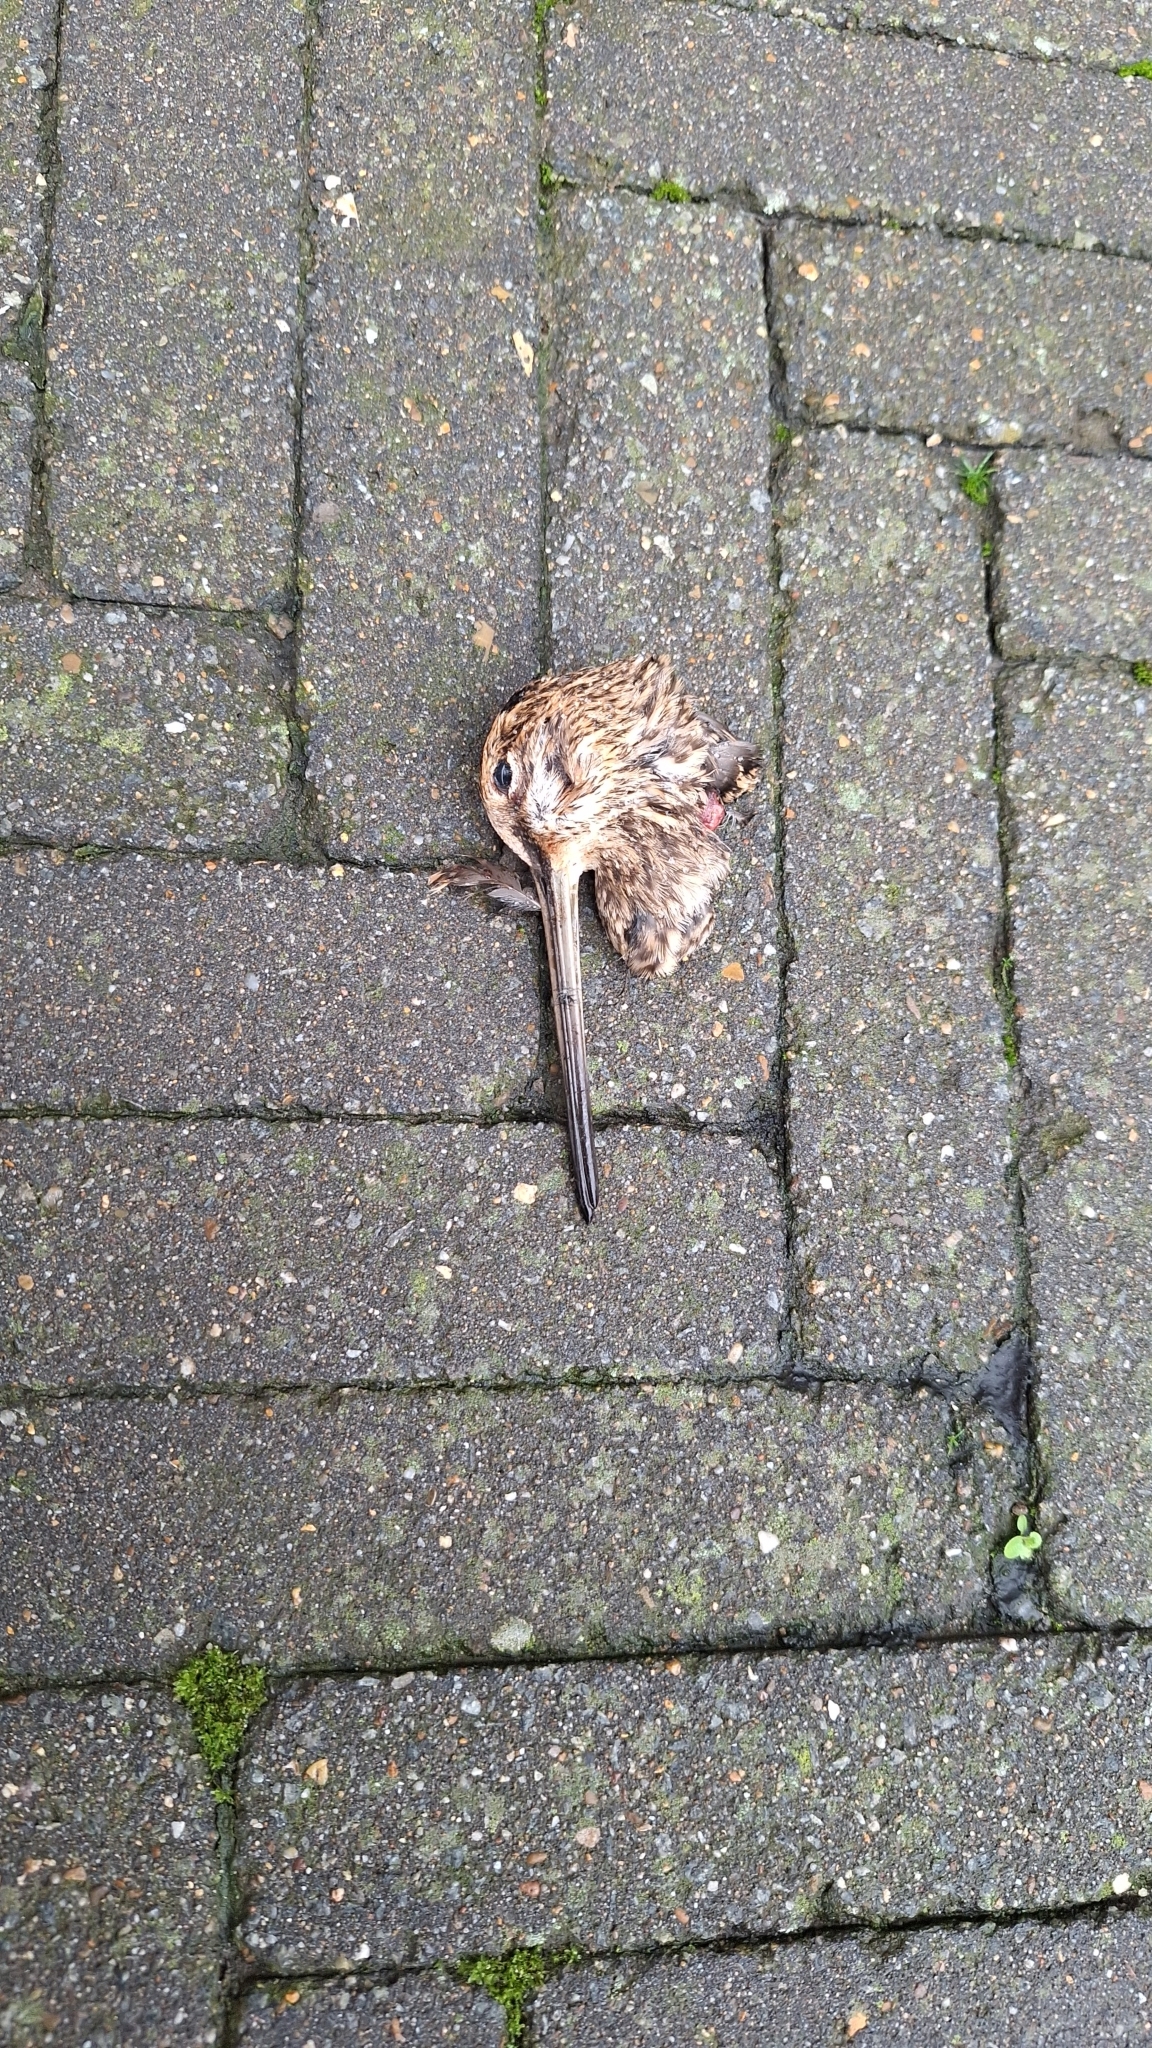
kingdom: Animalia
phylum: Chordata
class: Aves
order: Charadriiformes
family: Scolopacidae
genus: Gallinago
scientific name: Gallinago gallinago
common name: Common snipe
